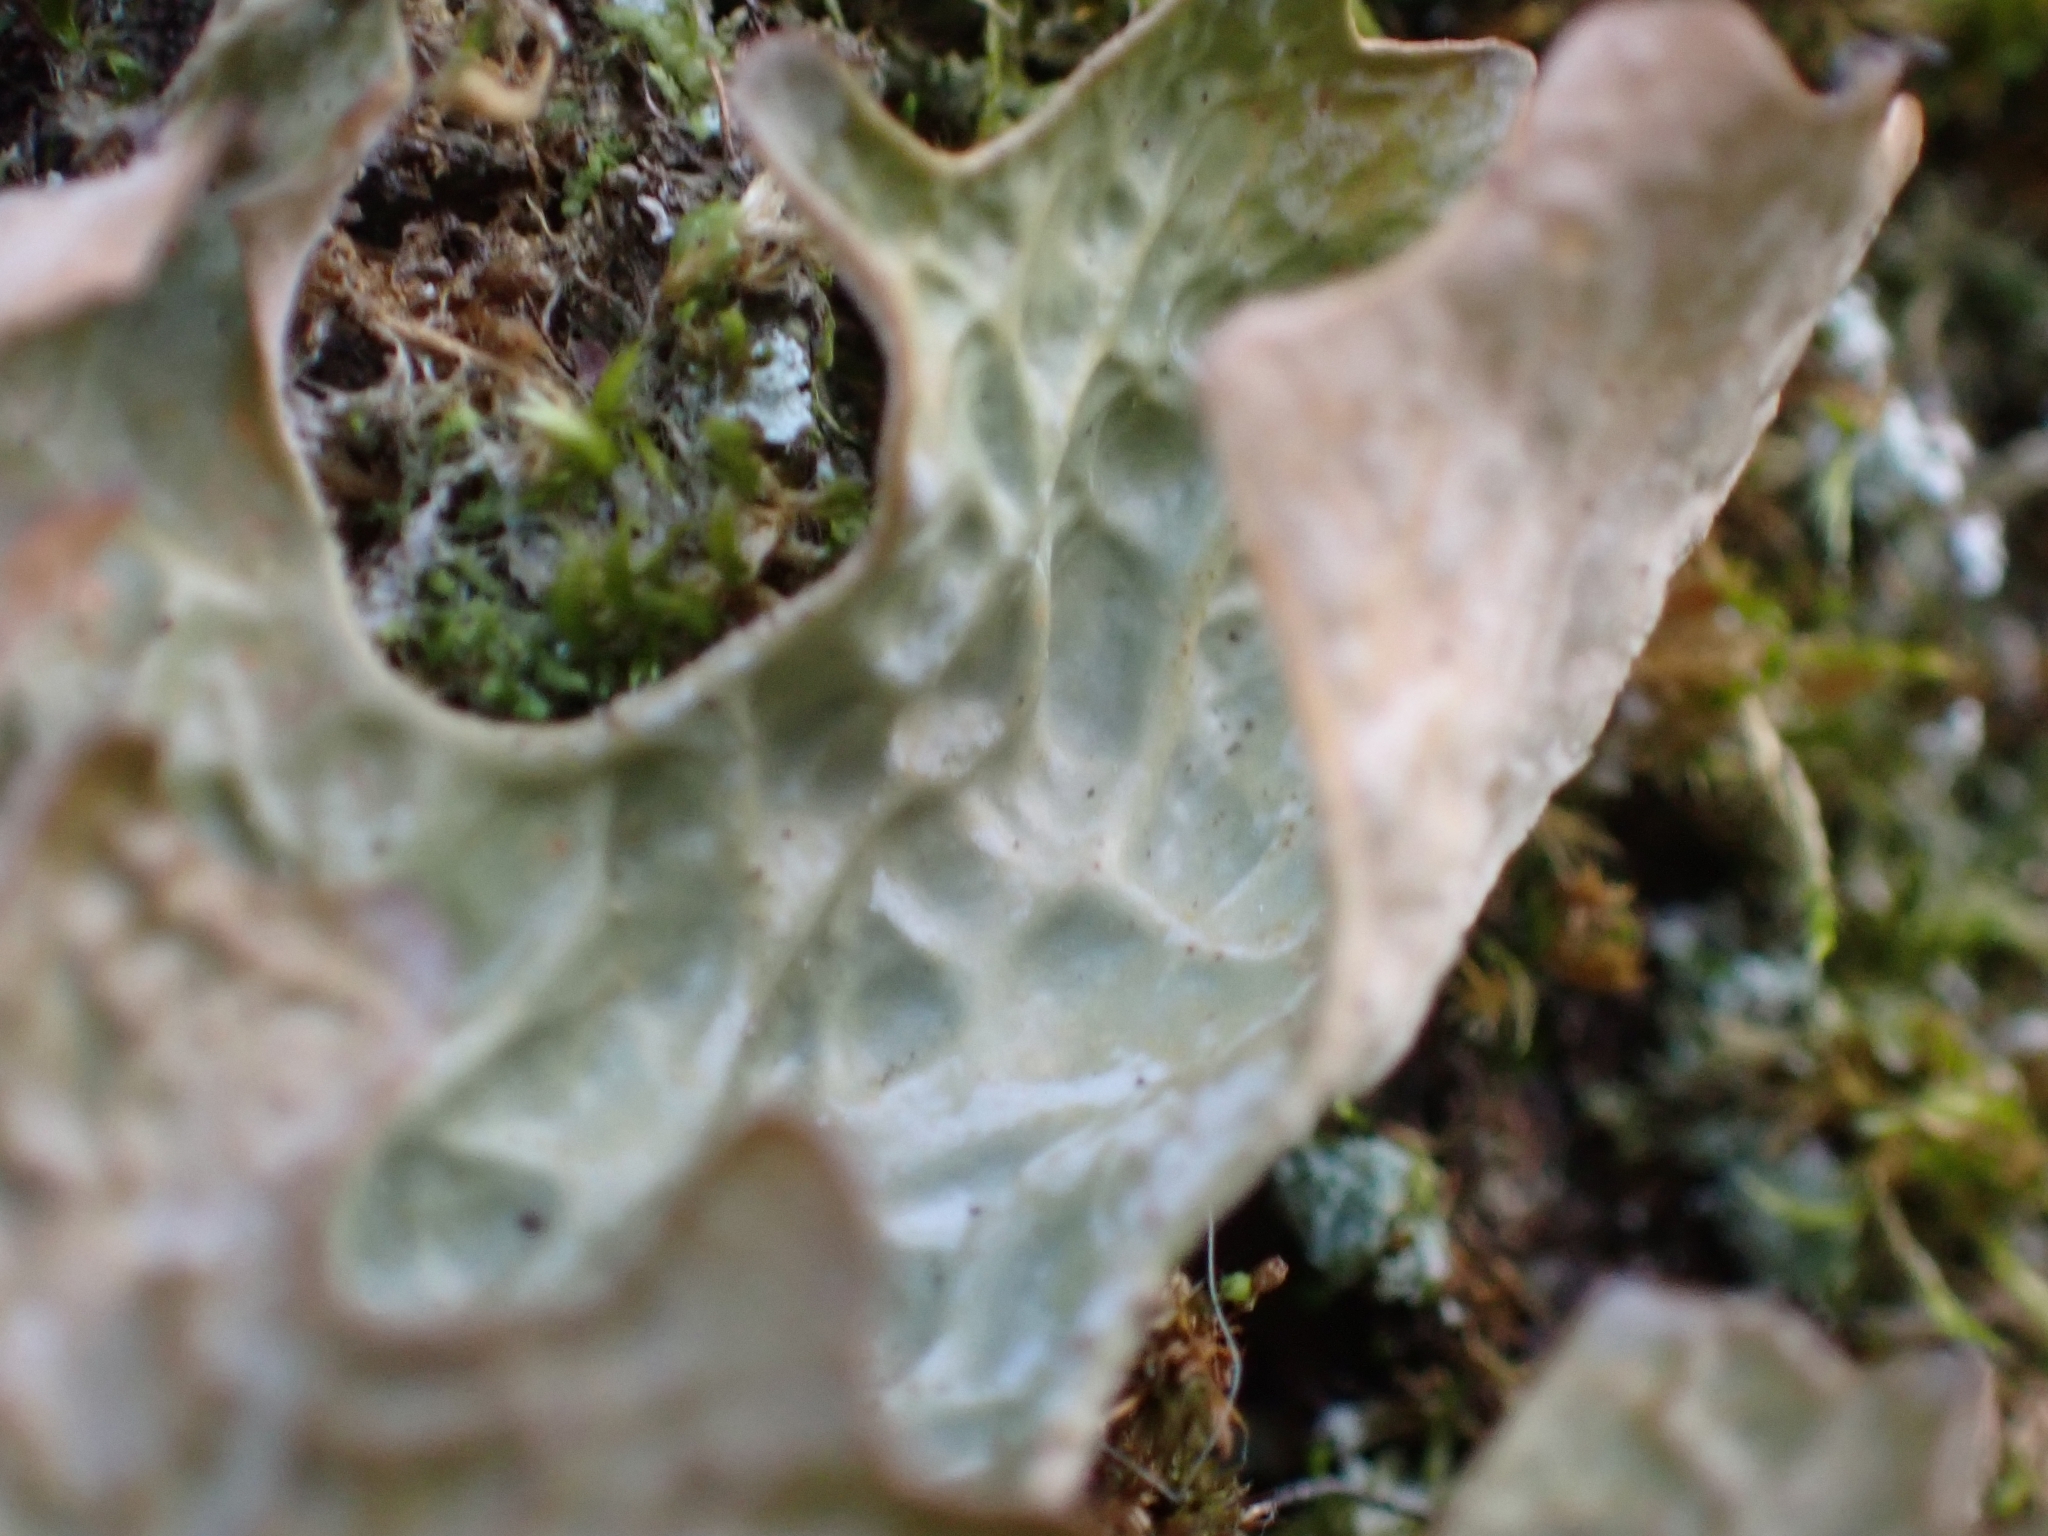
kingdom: Fungi
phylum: Ascomycota
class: Lecanoromycetes
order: Peltigerales
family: Lobariaceae
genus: Lobaria
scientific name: Lobaria pulmonaria
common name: Lungwort
